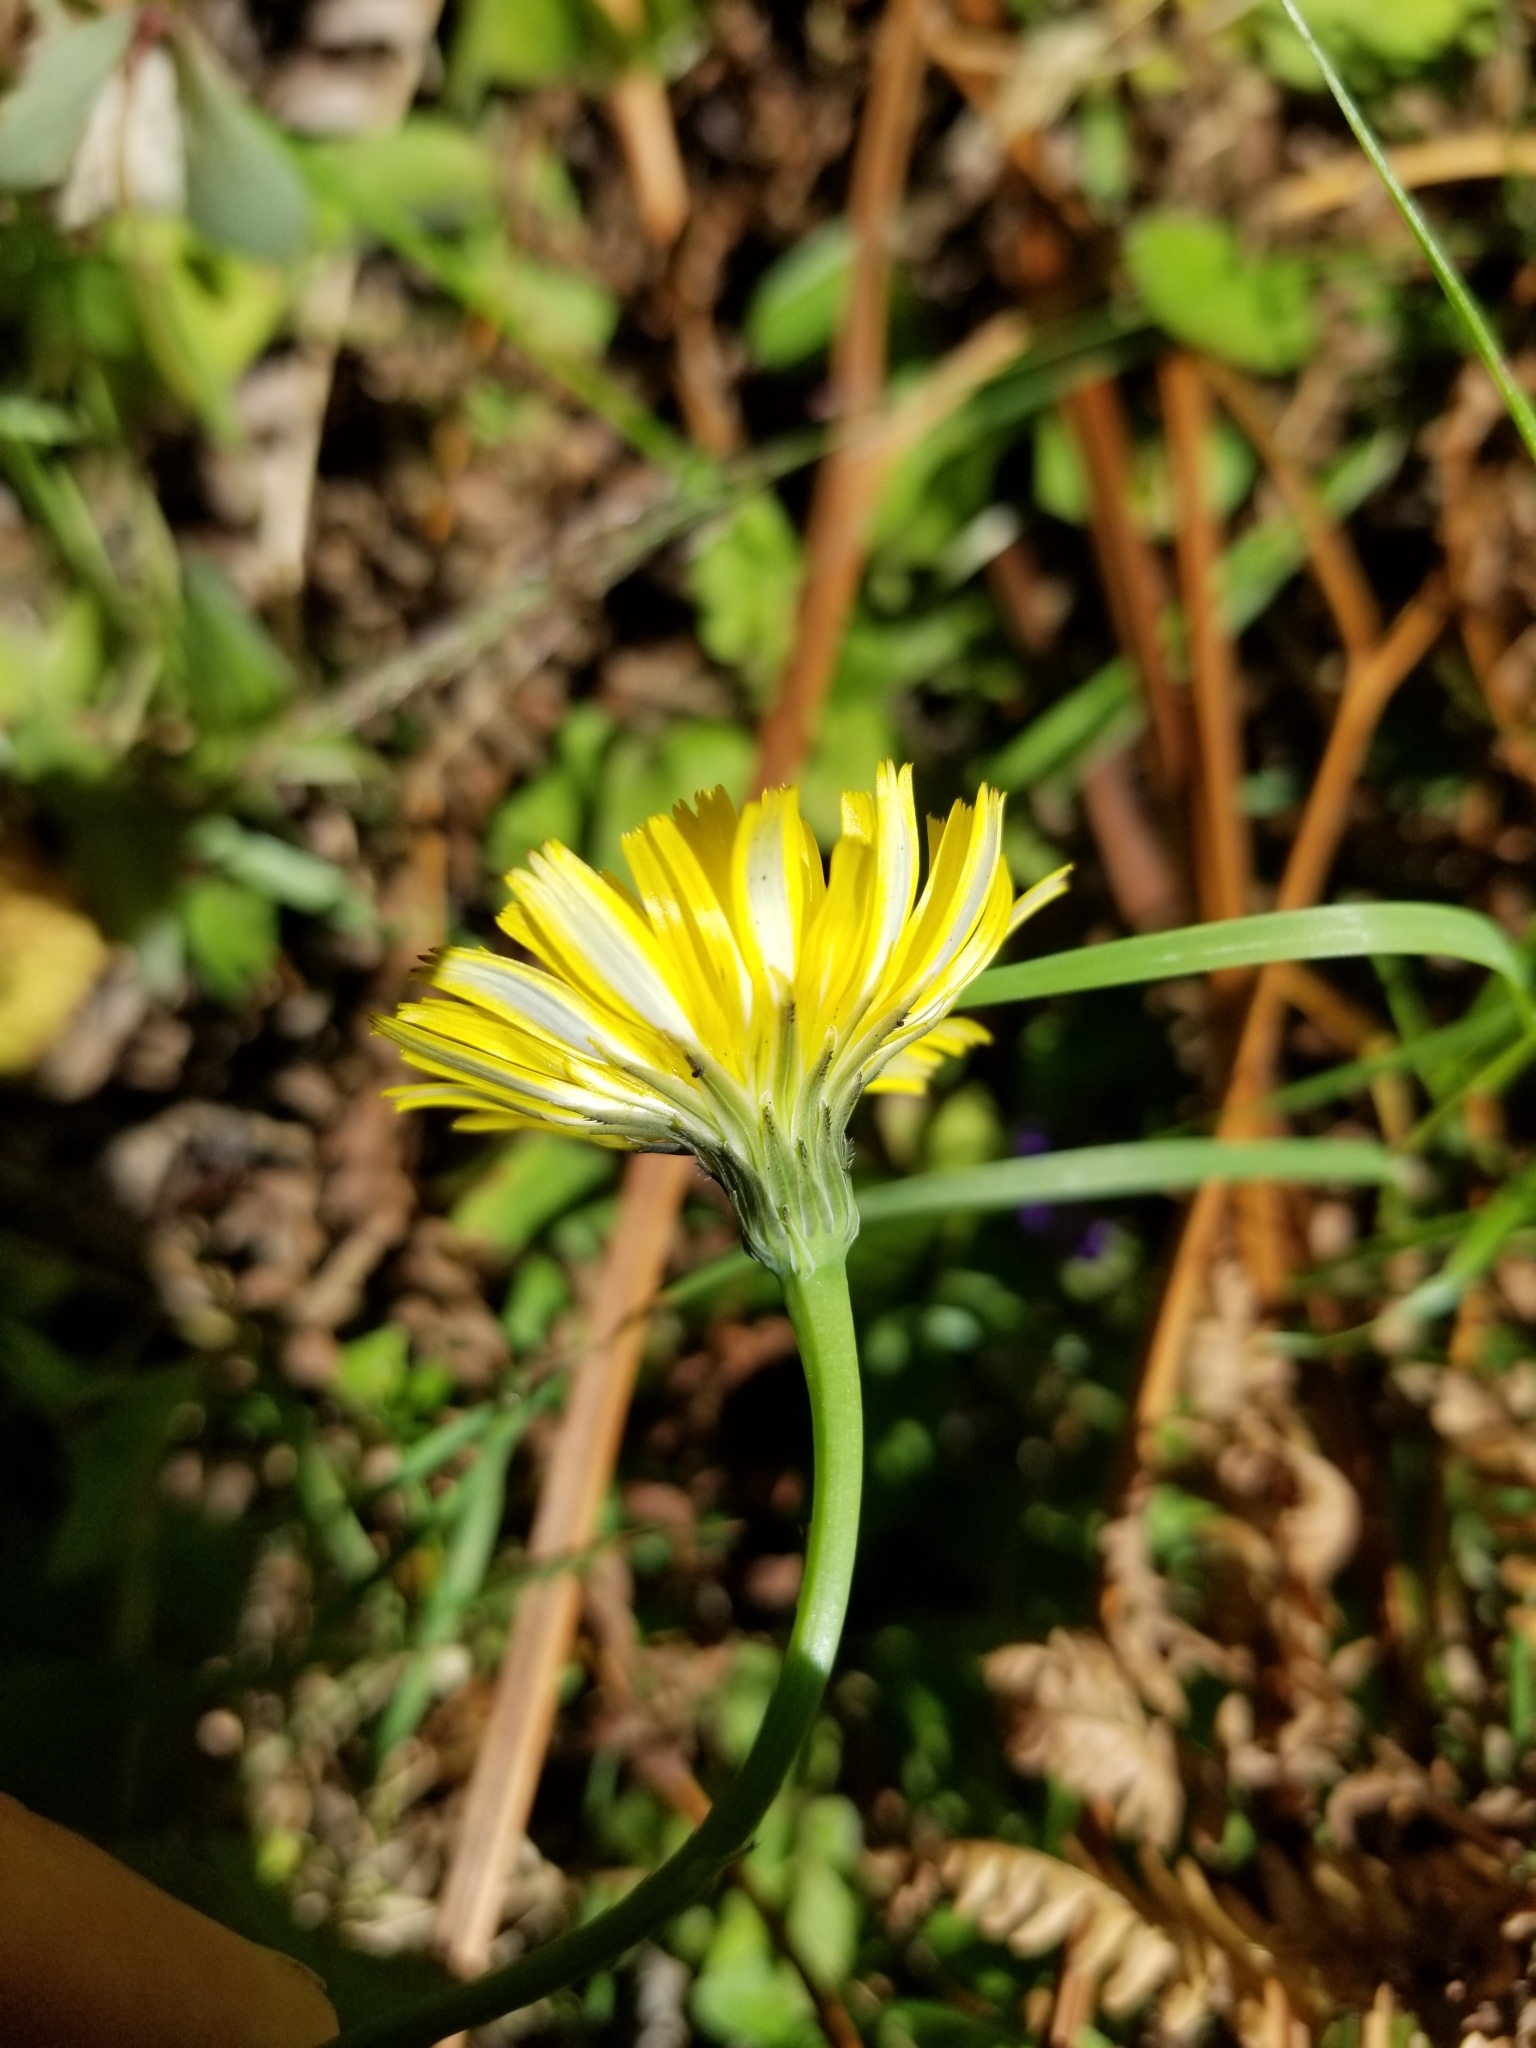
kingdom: Plantae
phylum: Tracheophyta
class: Magnoliopsida
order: Asterales
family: Asteraceae
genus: Hypochaeris
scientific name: Hypochaeris radicata
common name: Flatweed
